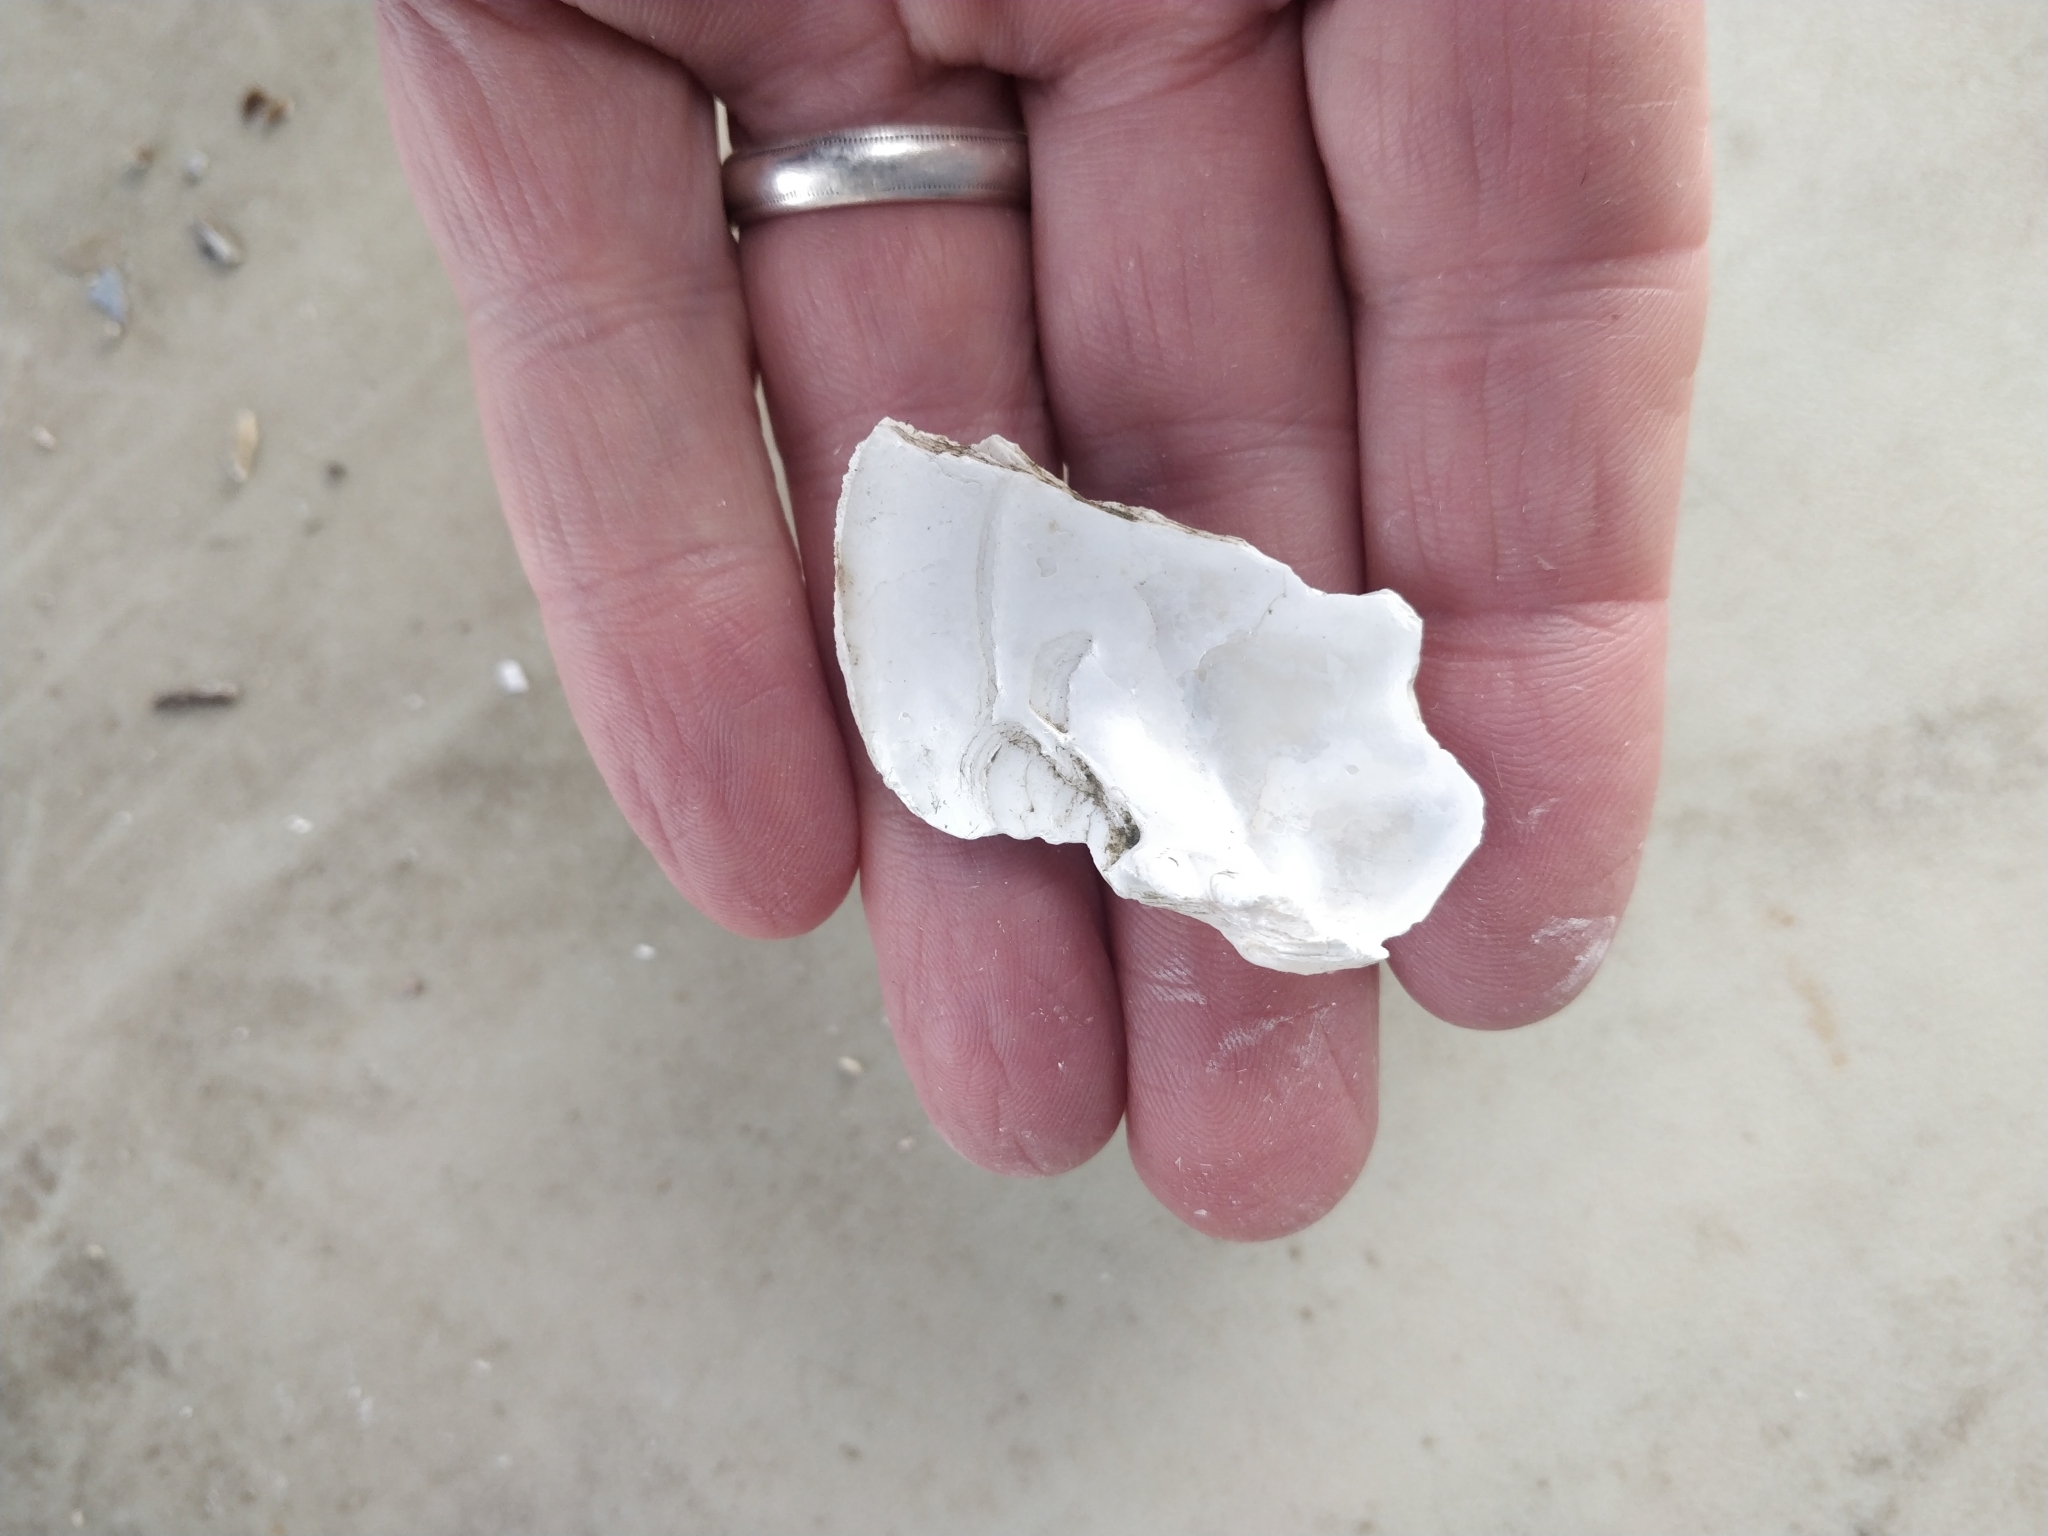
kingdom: Animalia
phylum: Mollusca
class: Bivalvia
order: Unionida
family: Unionidae
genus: Lampsilis
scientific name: Lampsilis cardium
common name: Plain pocketbook
